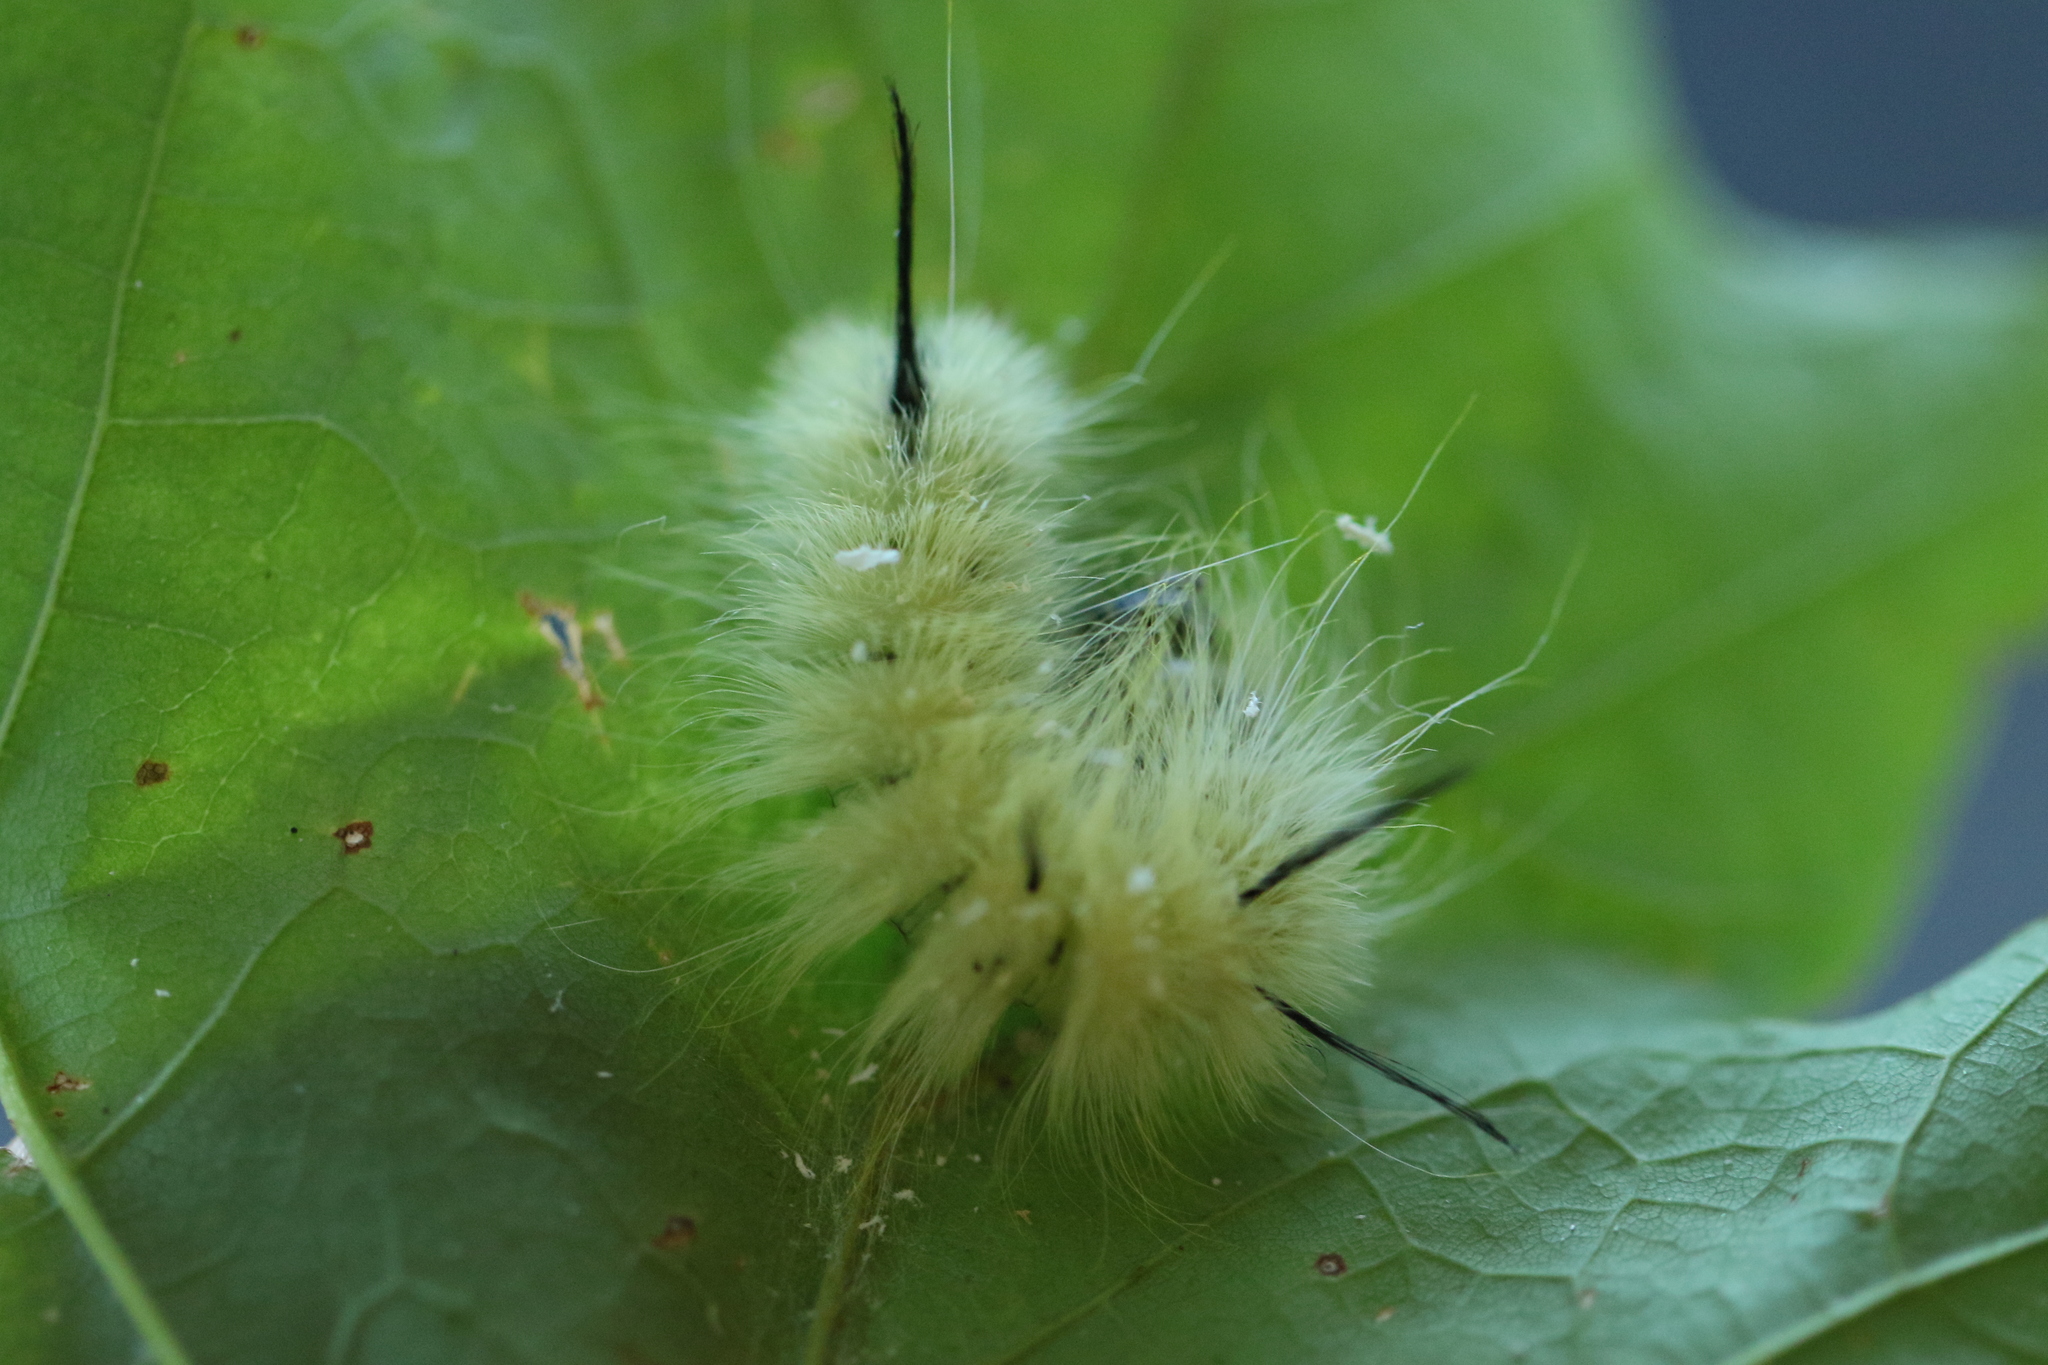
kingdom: Animalia
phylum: Arthropoda
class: Insecta
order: Lepidoptera
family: Noctuidae
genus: Acronicta
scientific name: Acronicta americana
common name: American dagger
